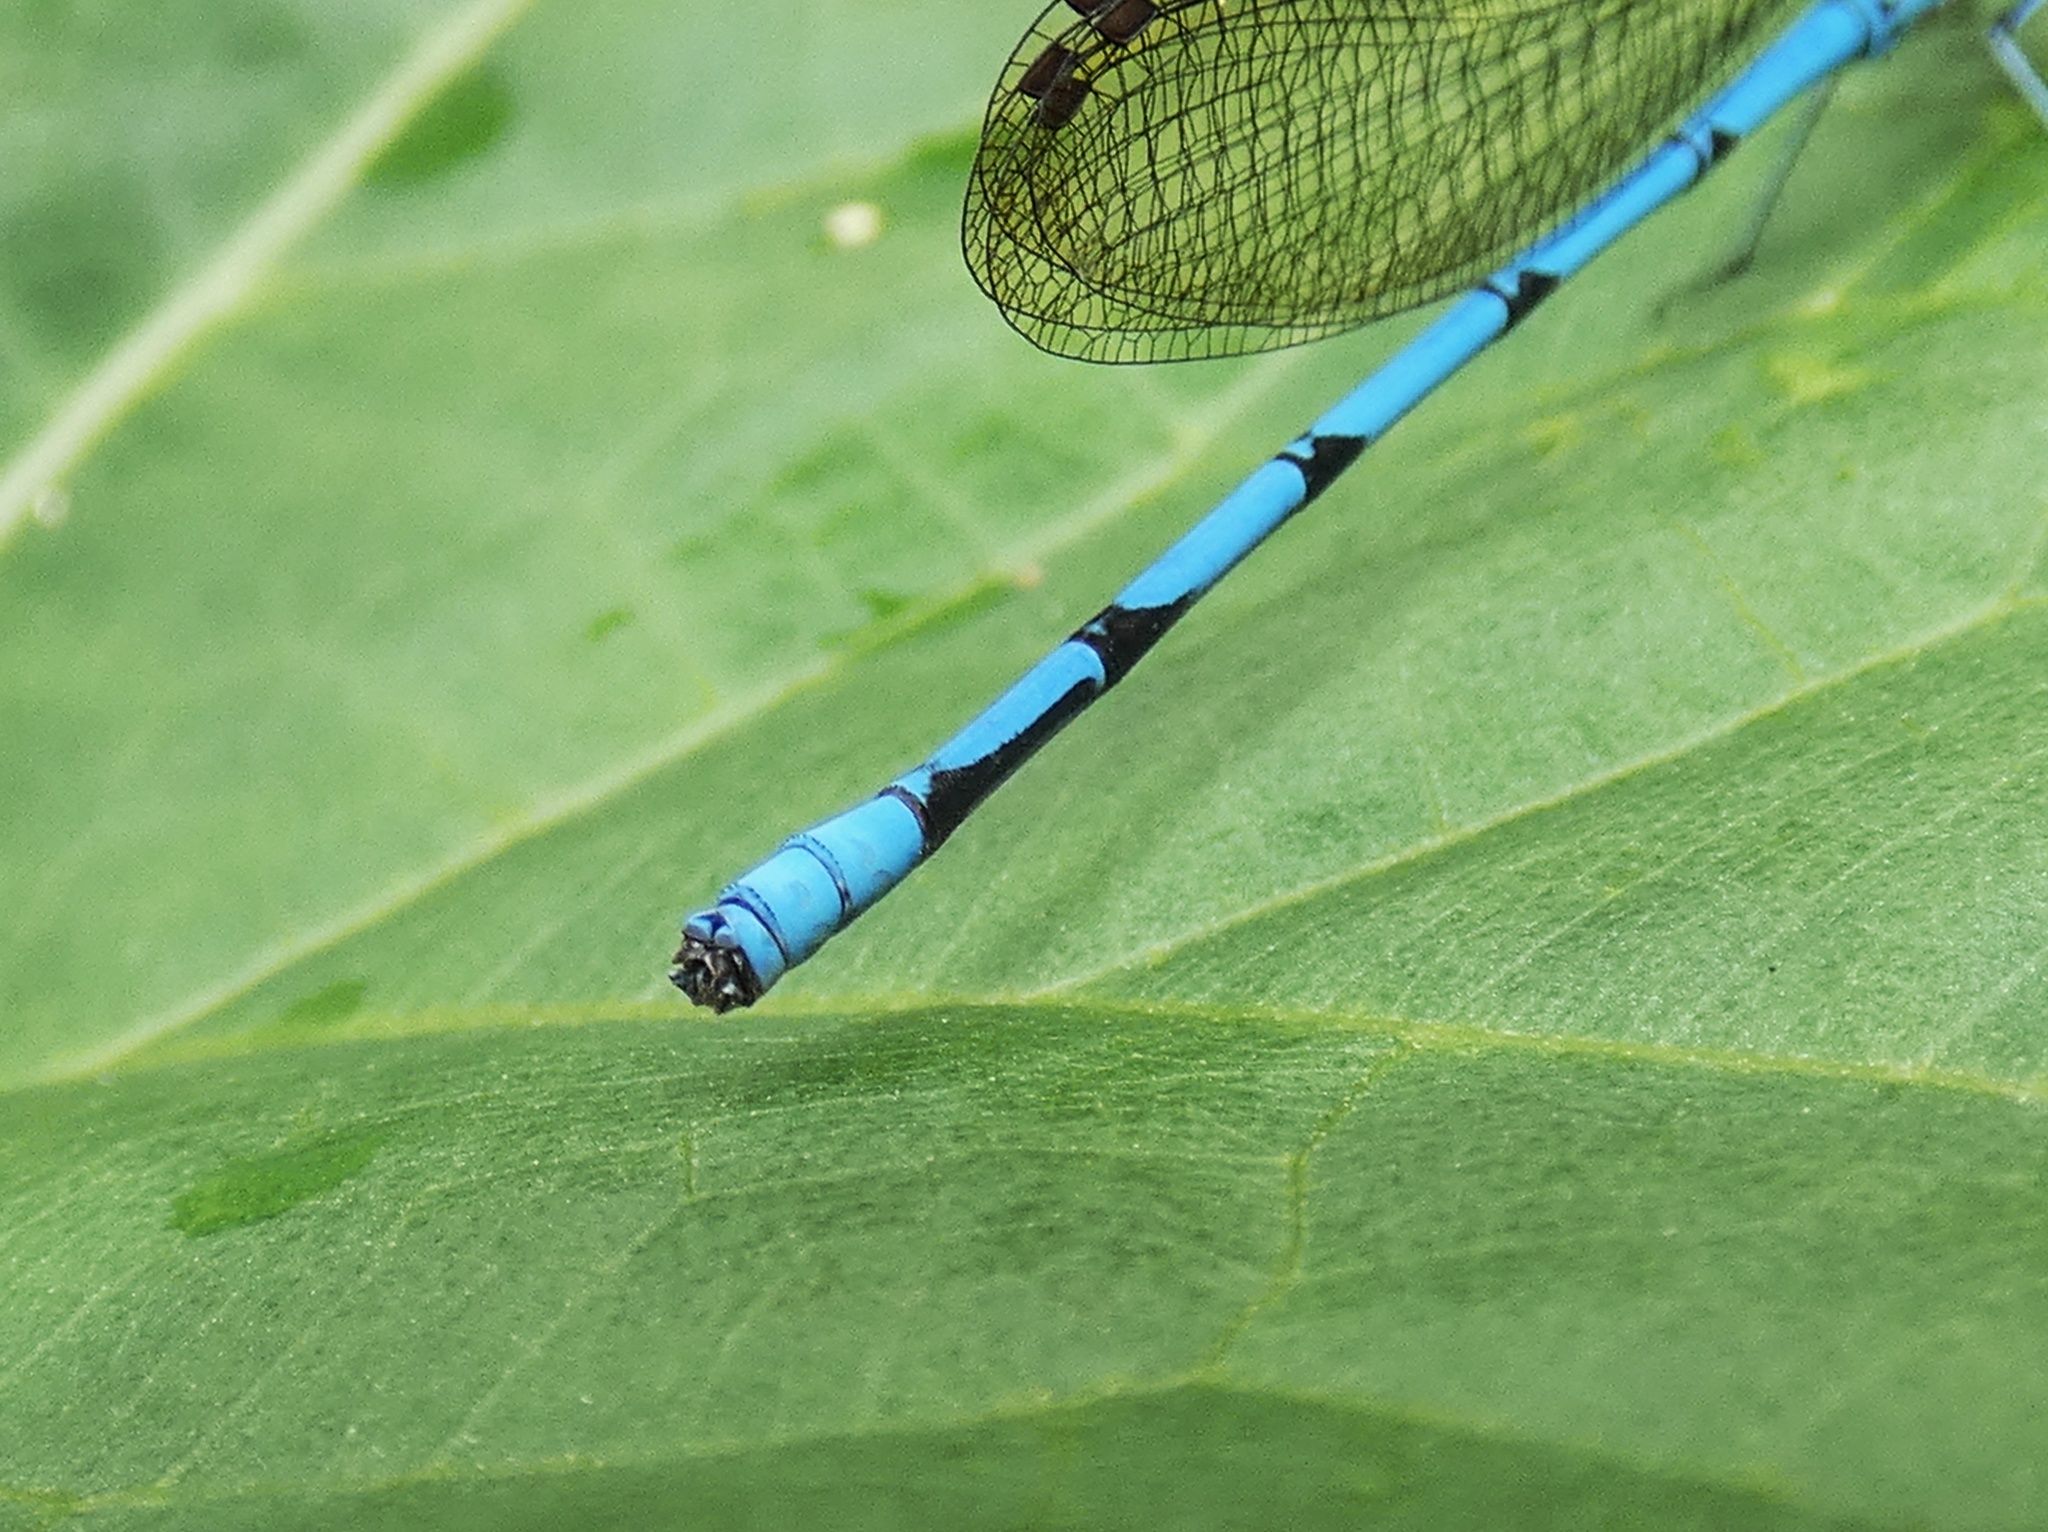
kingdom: Animalia
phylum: Arthropoda
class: Insecta
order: Odonata
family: Coenagrionidae
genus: Argia
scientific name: Argia fissa
